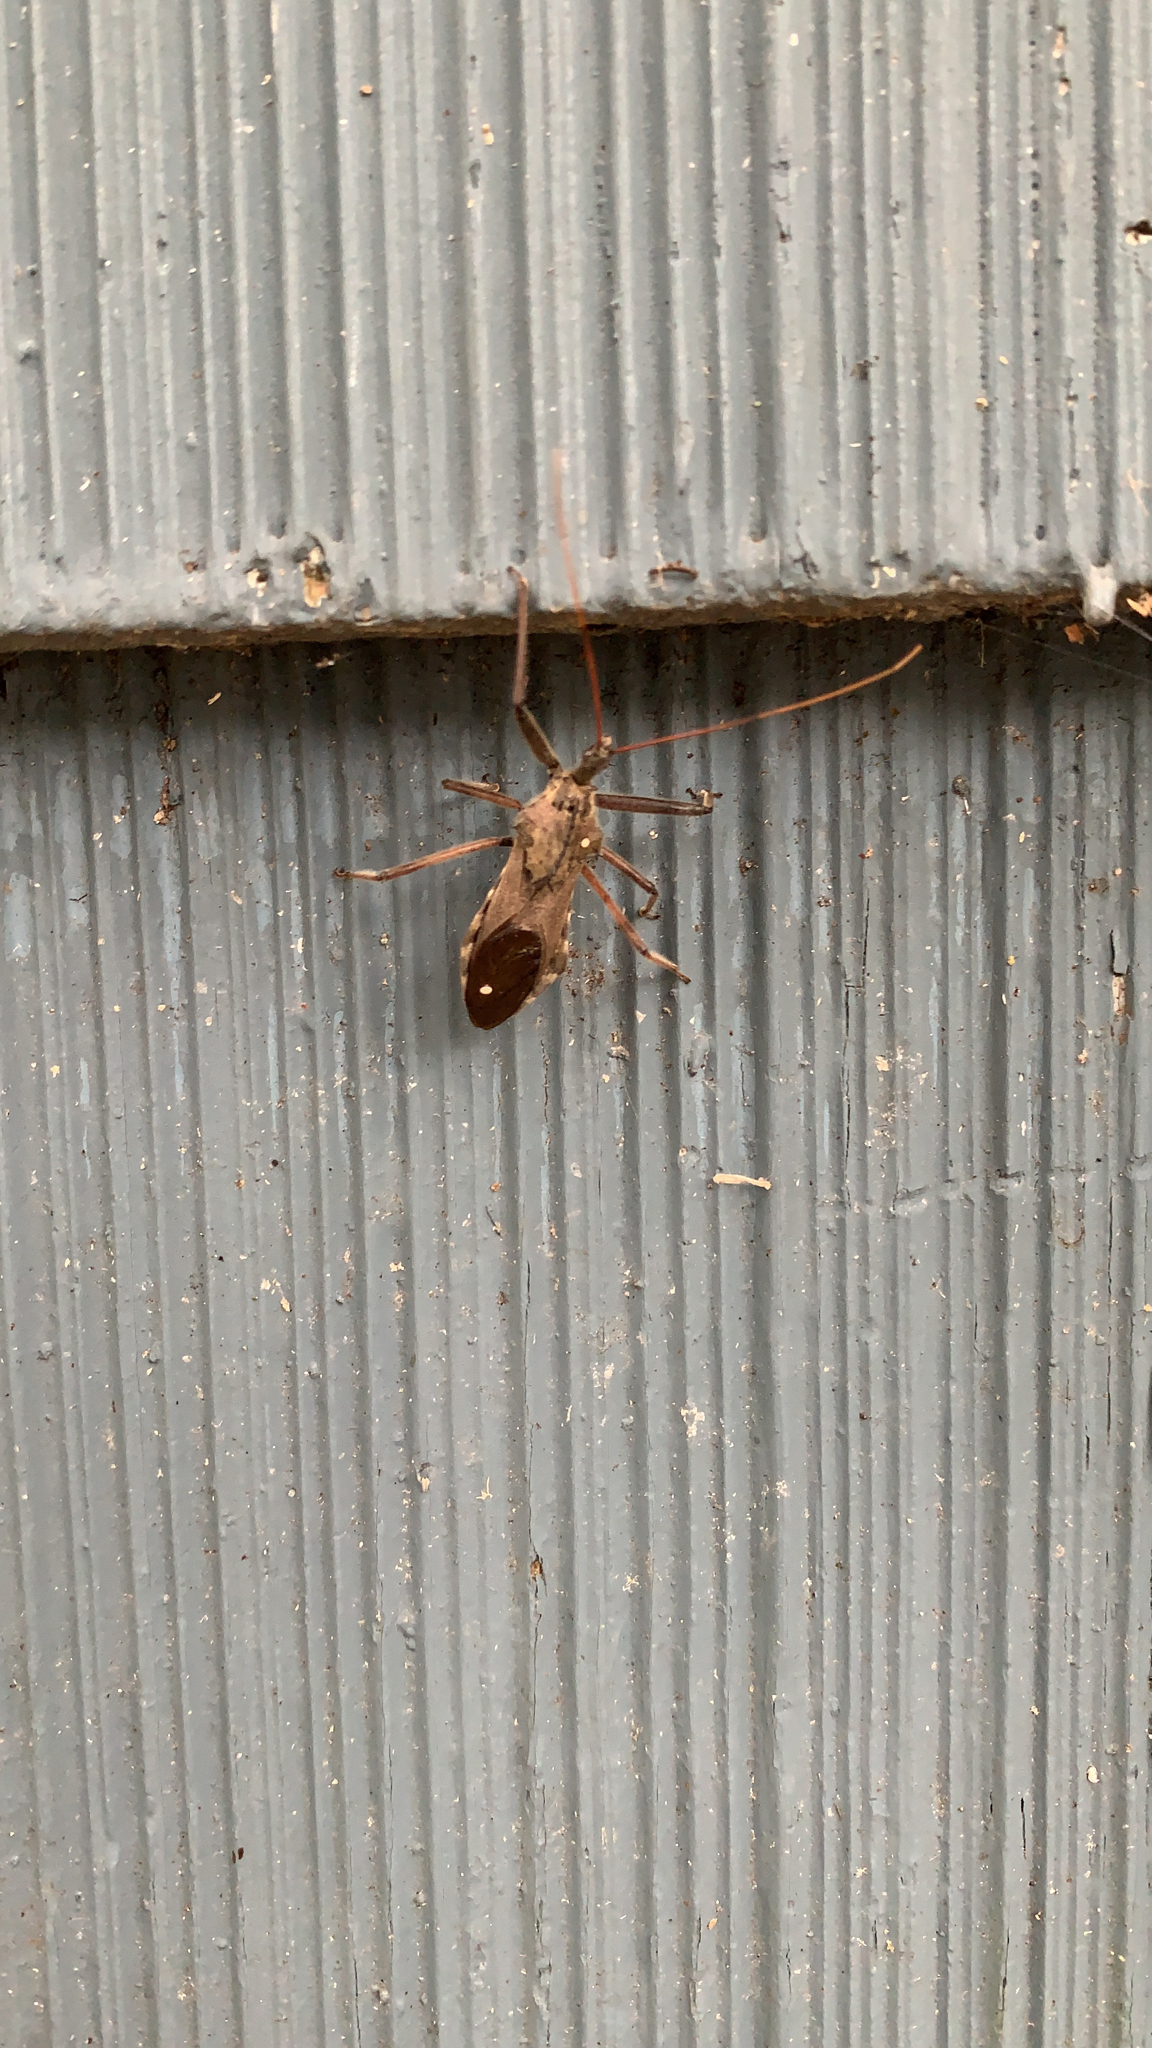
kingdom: Animalia
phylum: Arthropoda
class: Insecta
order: Hemiptera
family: Reduviidae
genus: Arilus
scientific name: Arilus cristatus
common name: North american wheel bug
